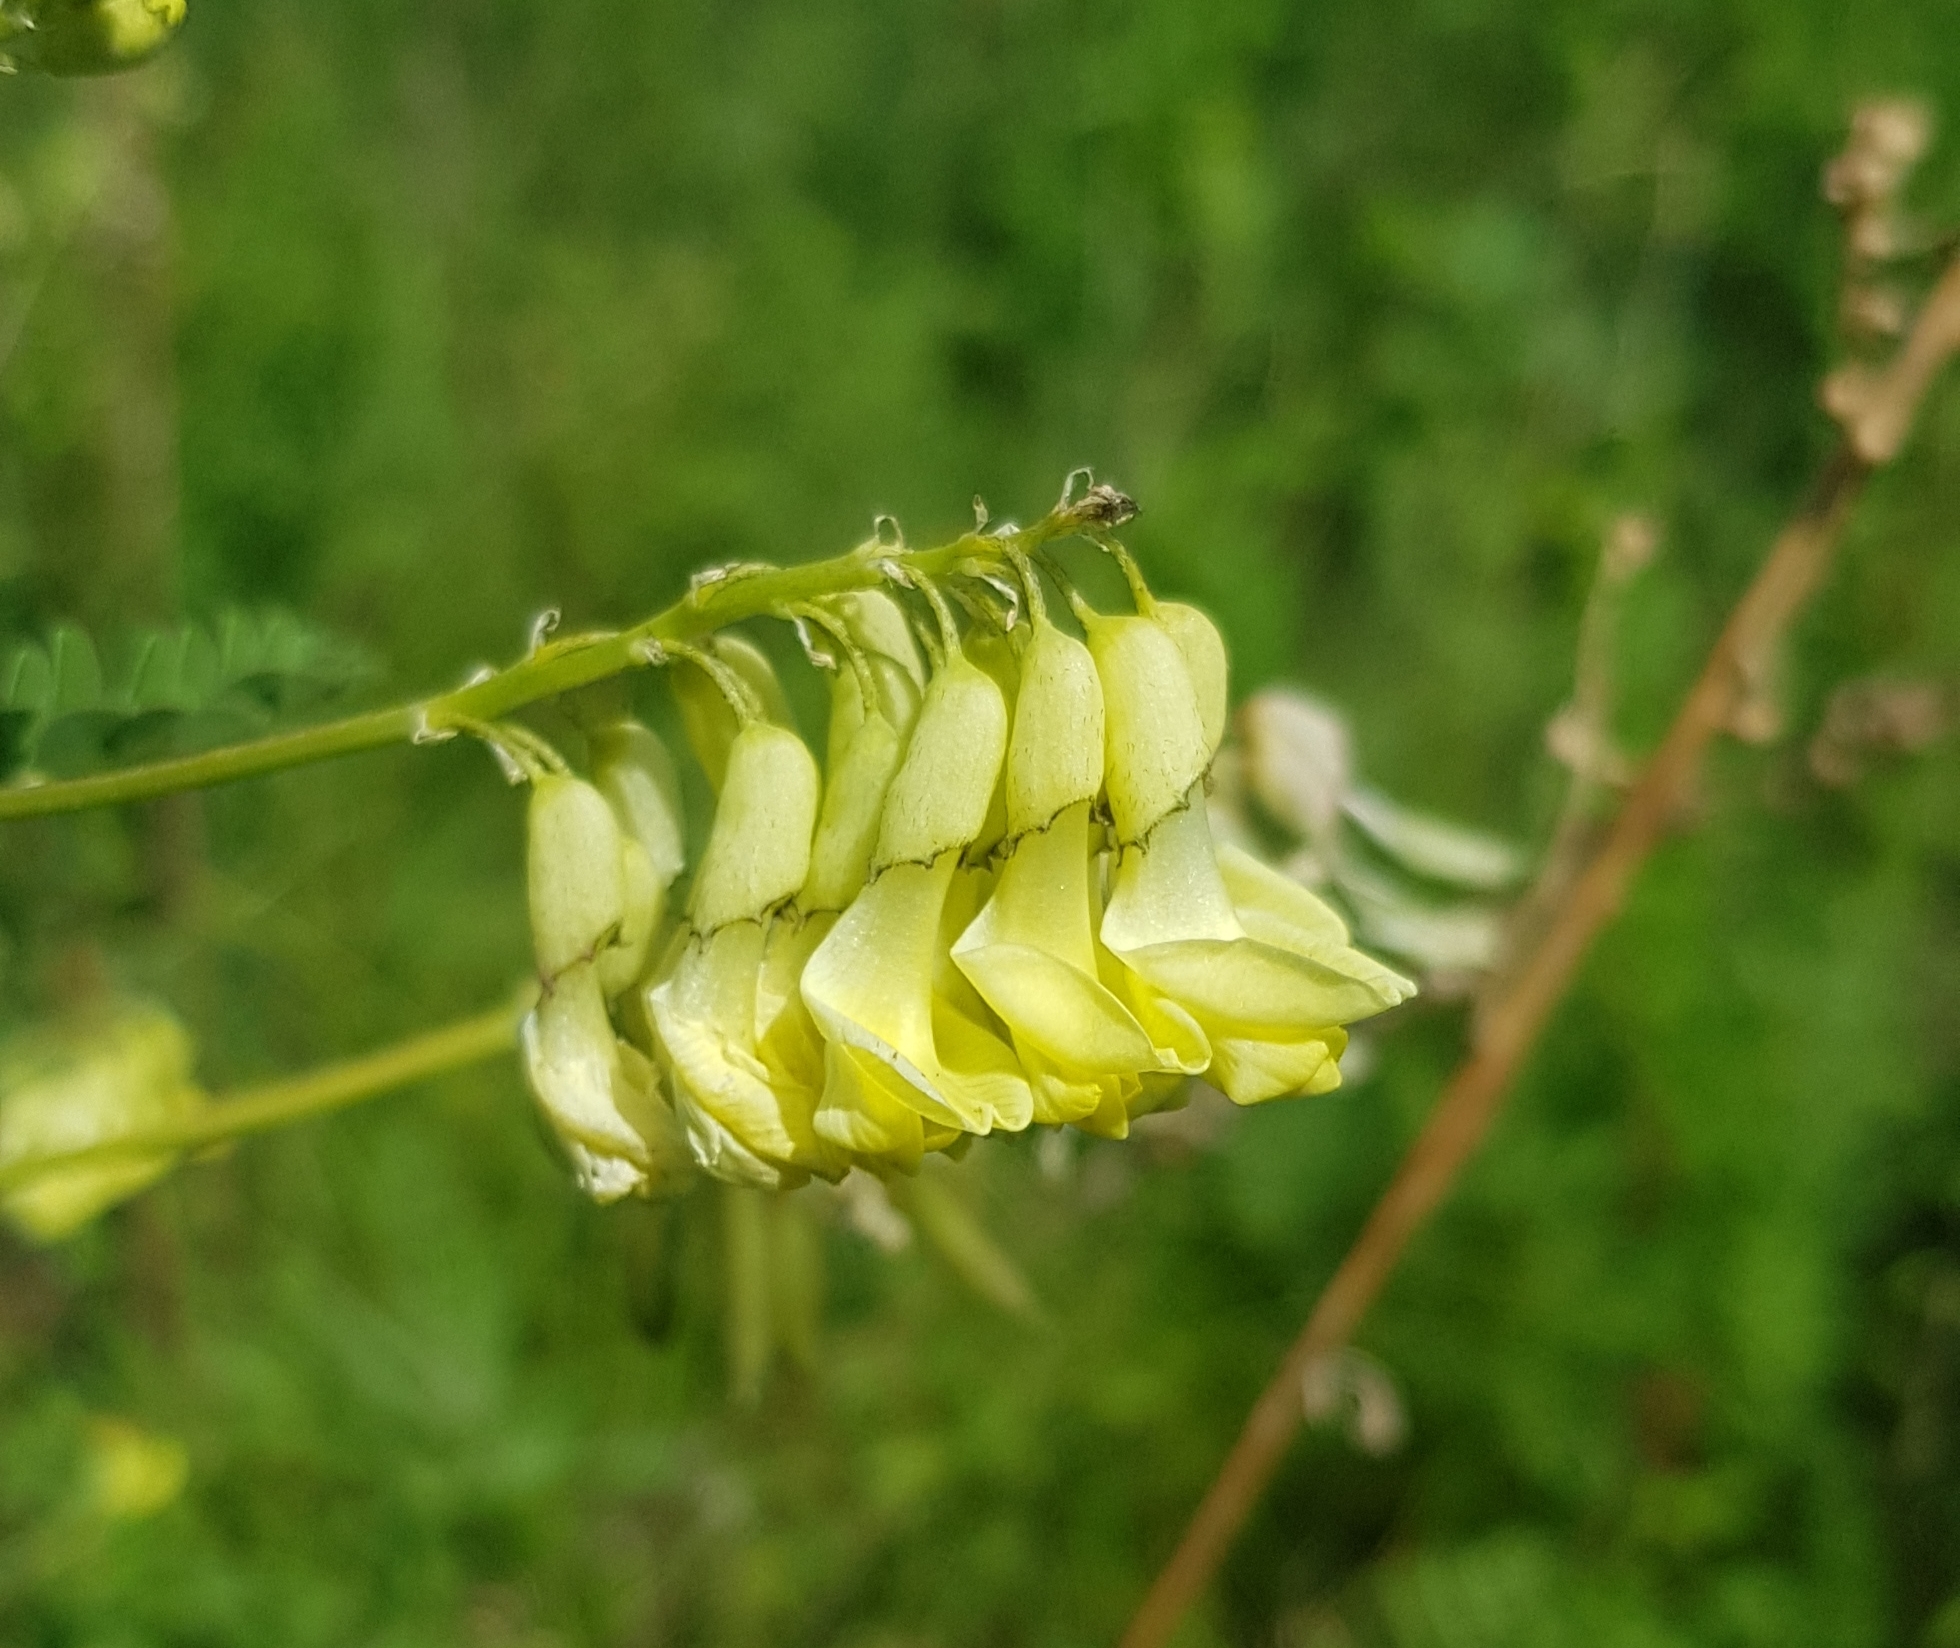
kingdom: Plantae
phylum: Tracheophyta
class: Magnoliopsida
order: Fabales
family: Fabaceae
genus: Astragalus
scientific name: Astragalus frigidus
